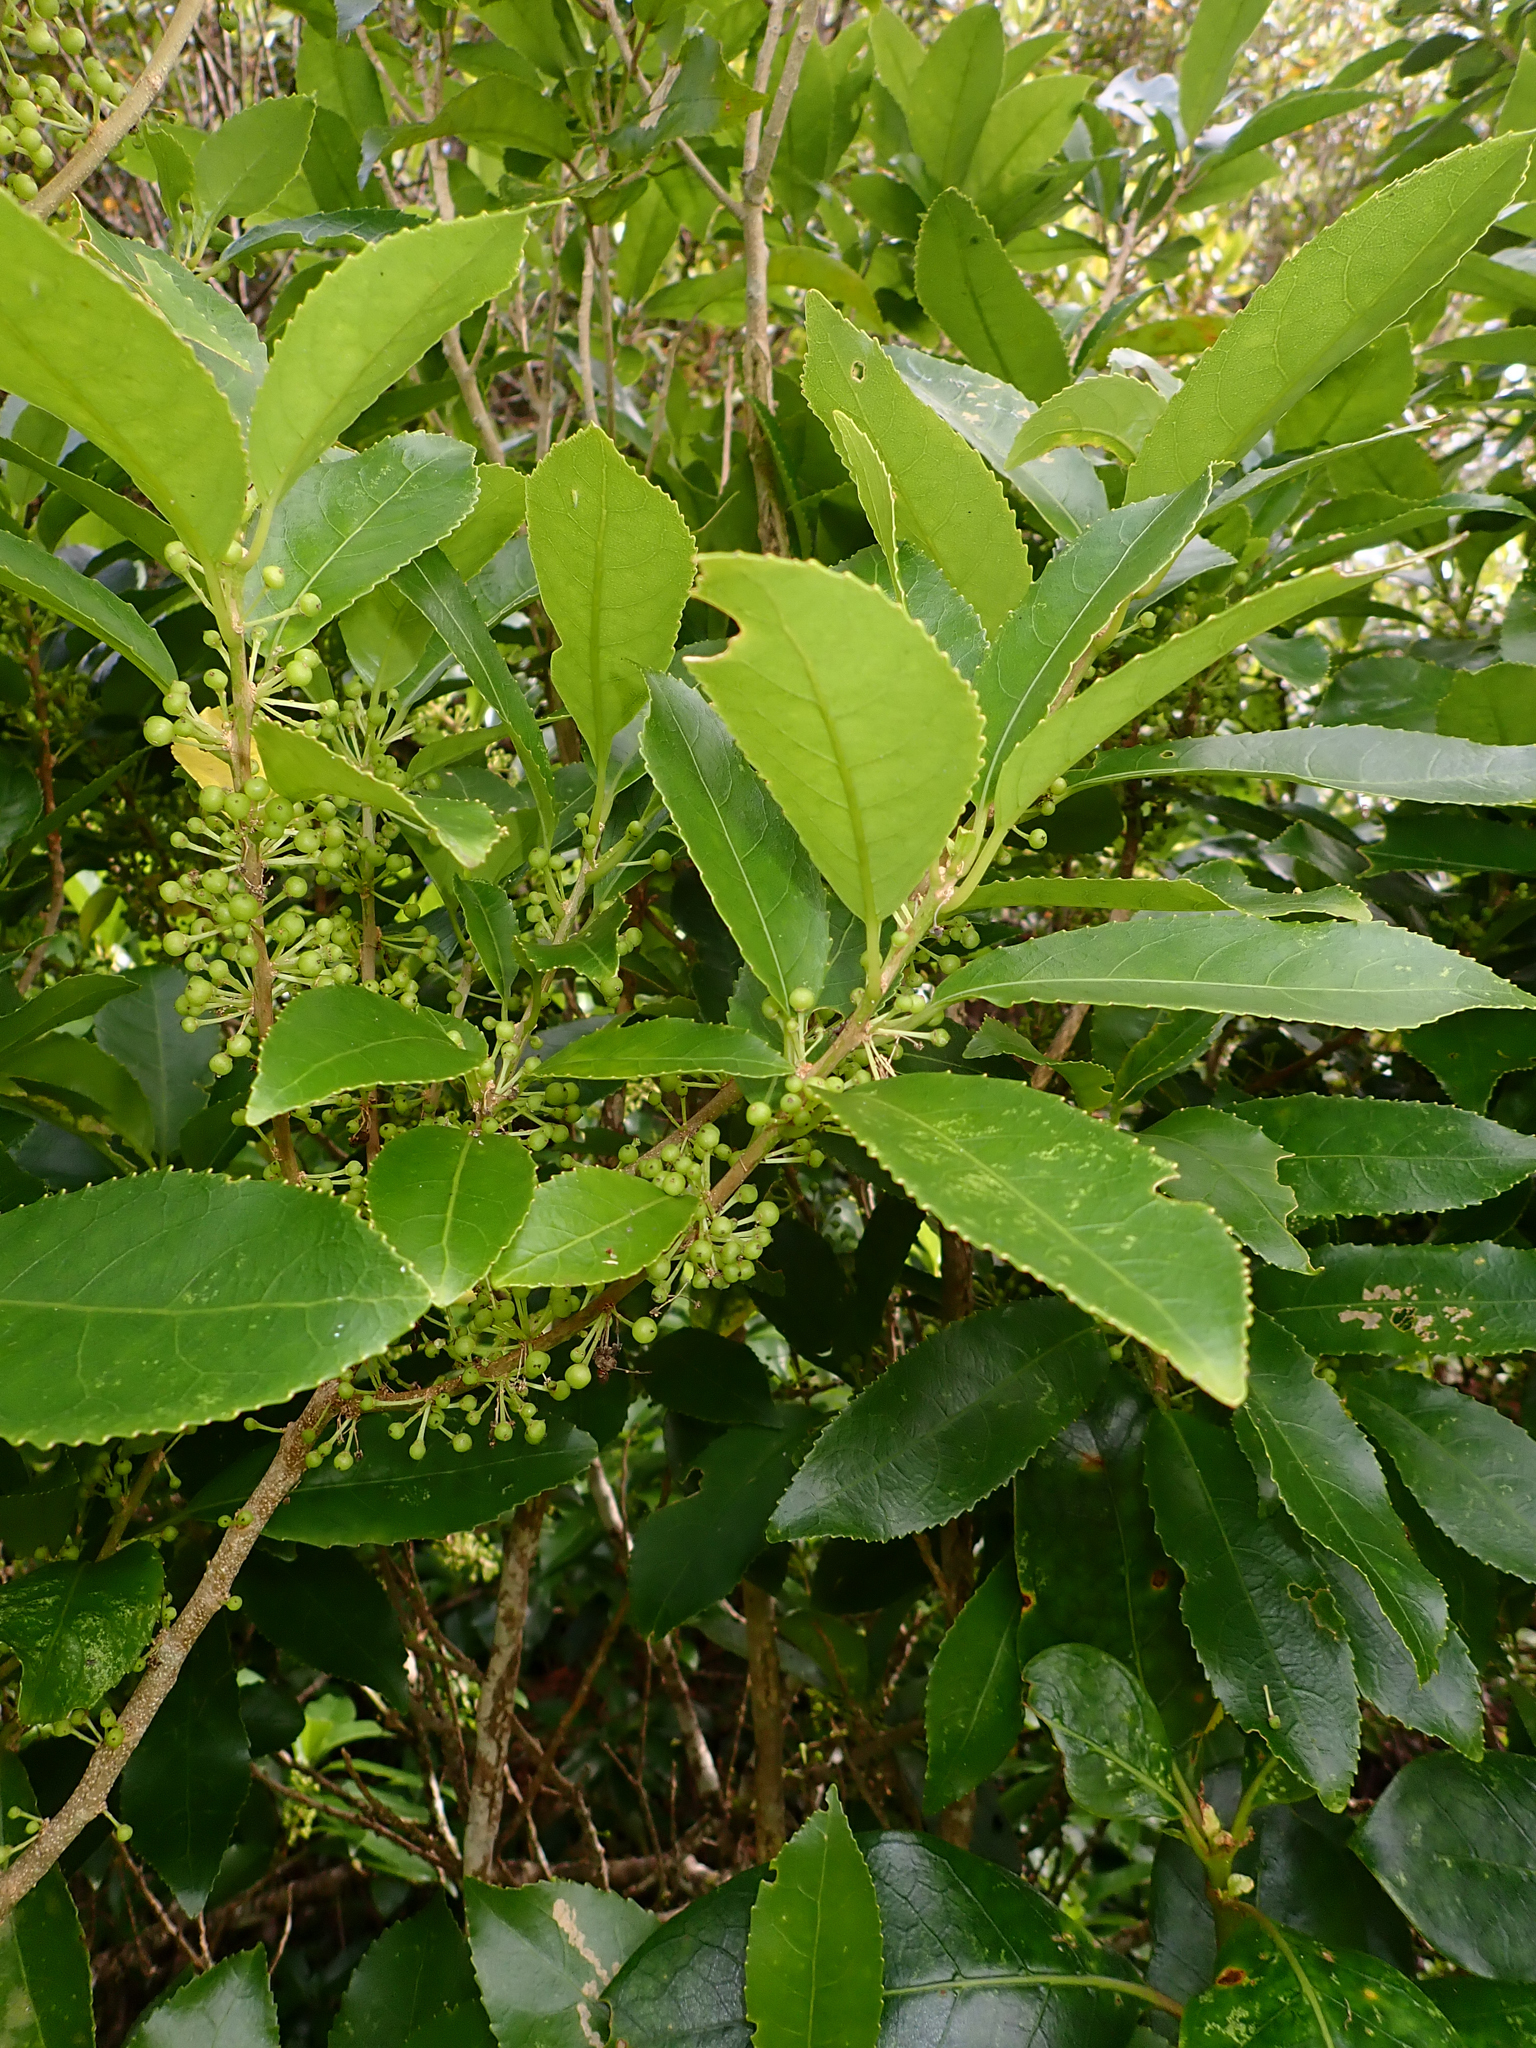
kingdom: Plantae
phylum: Tracheophyta
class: Magnoliopsida
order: Malpighiales
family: Violaceae
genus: Melicytus
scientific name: Melicytus ramiflorus
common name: Mahoe
